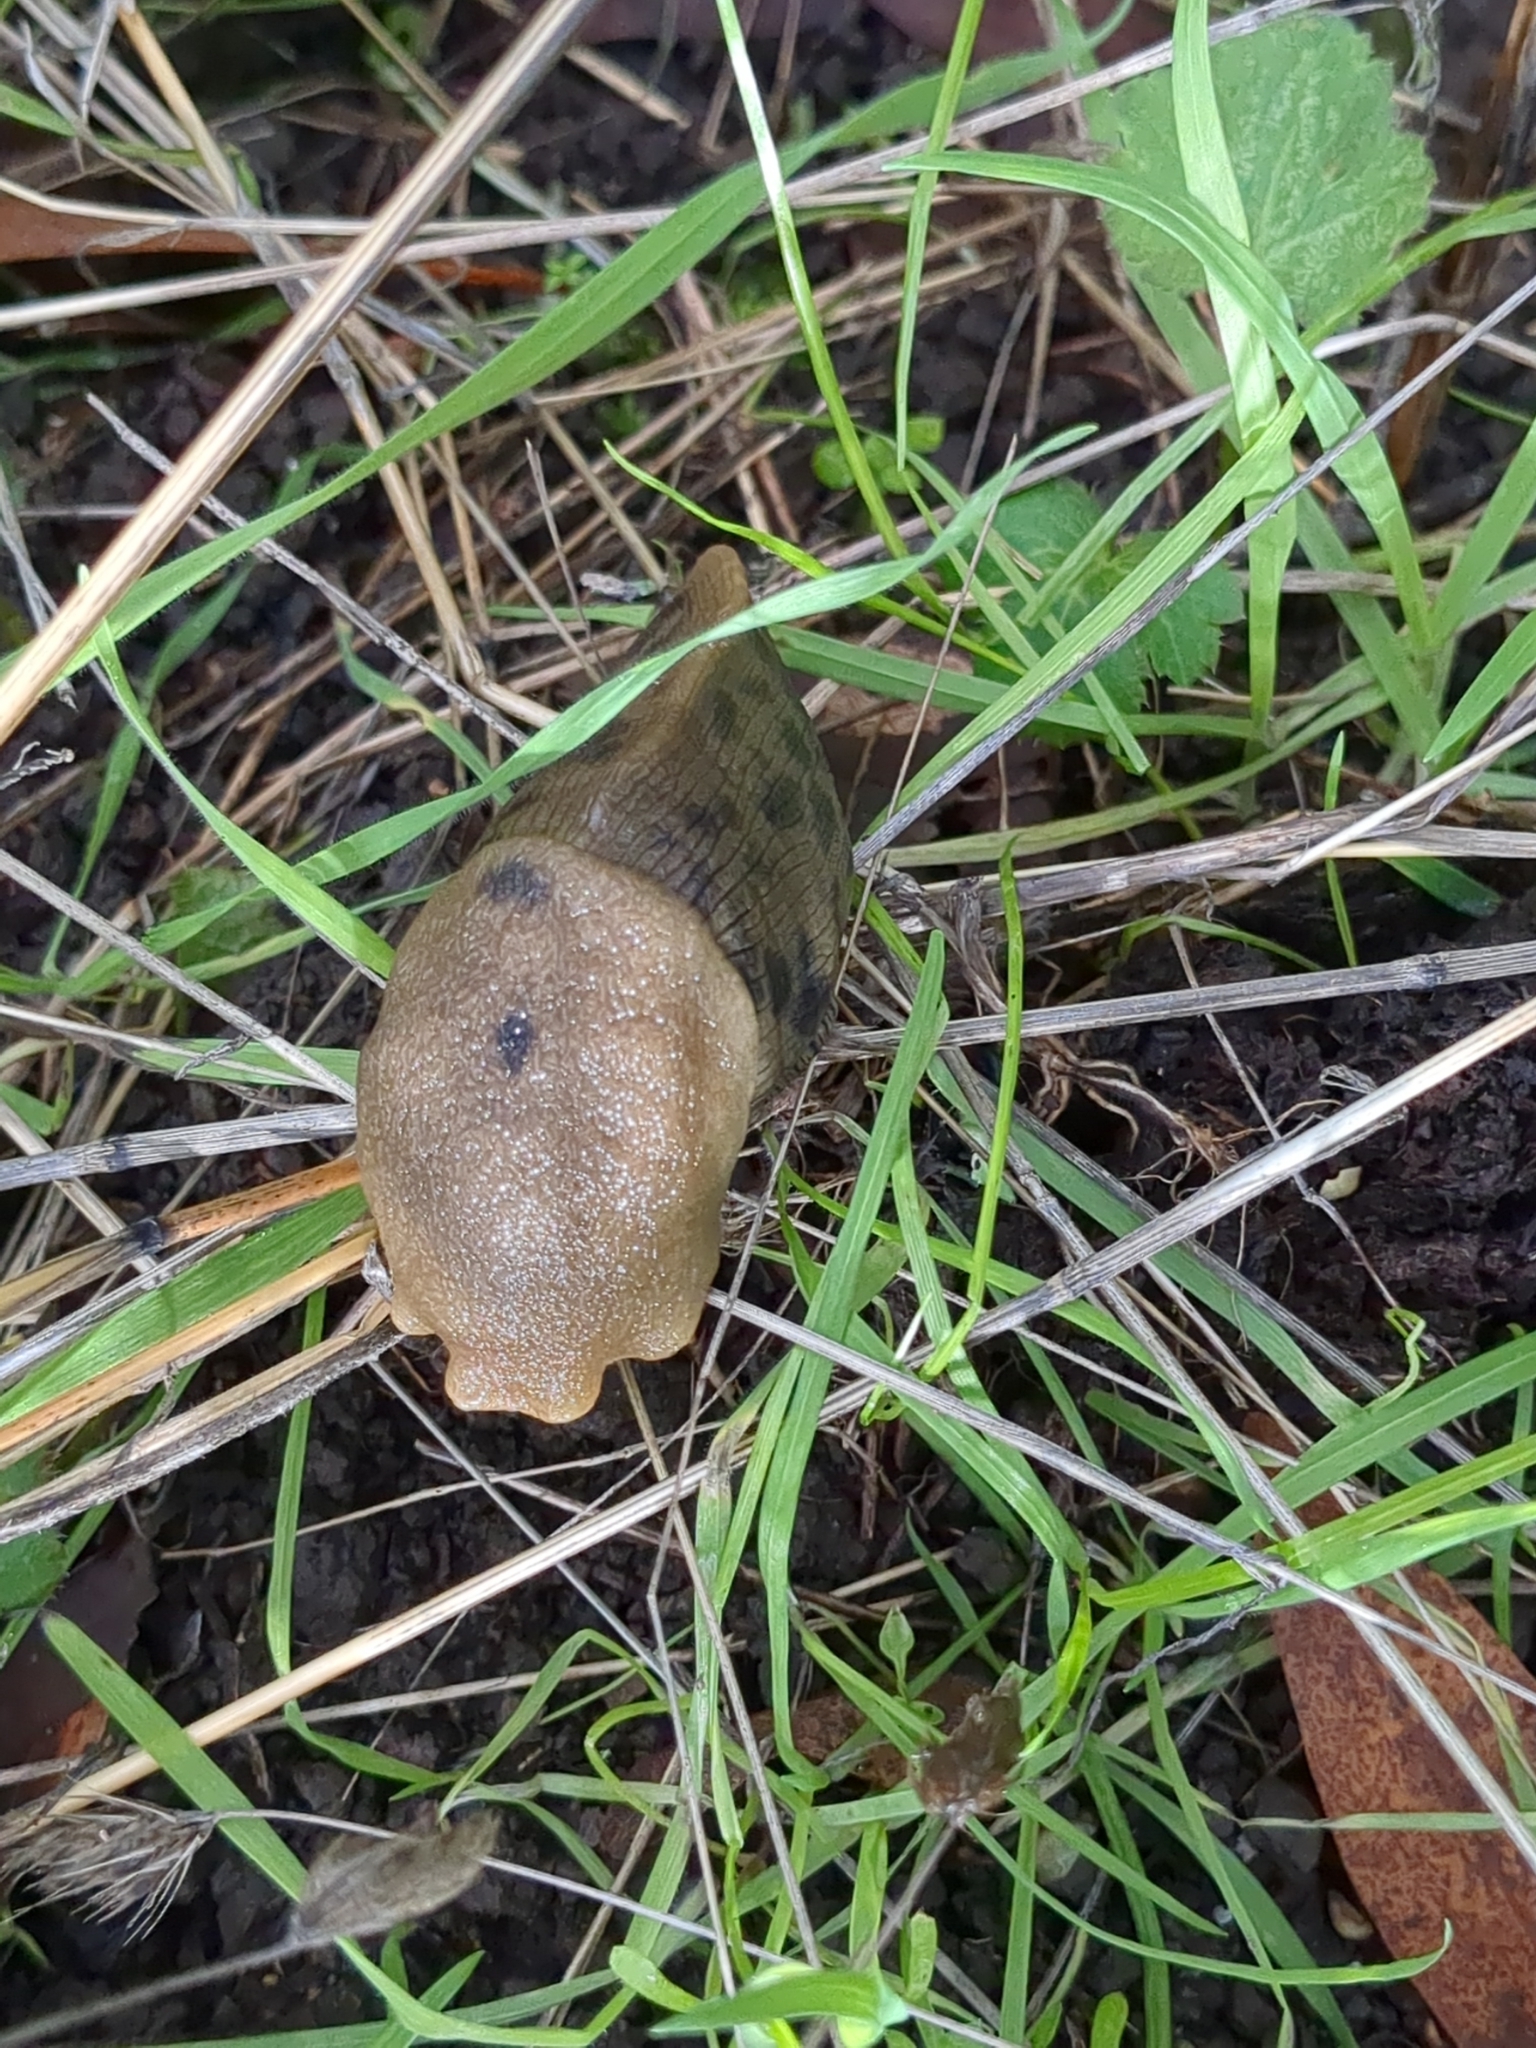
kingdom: Animalia
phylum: Mollusca
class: Gastropoda
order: Stylommatophora
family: Ariolimacidae
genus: Ariolimax
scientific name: Ariolimax buttoni
